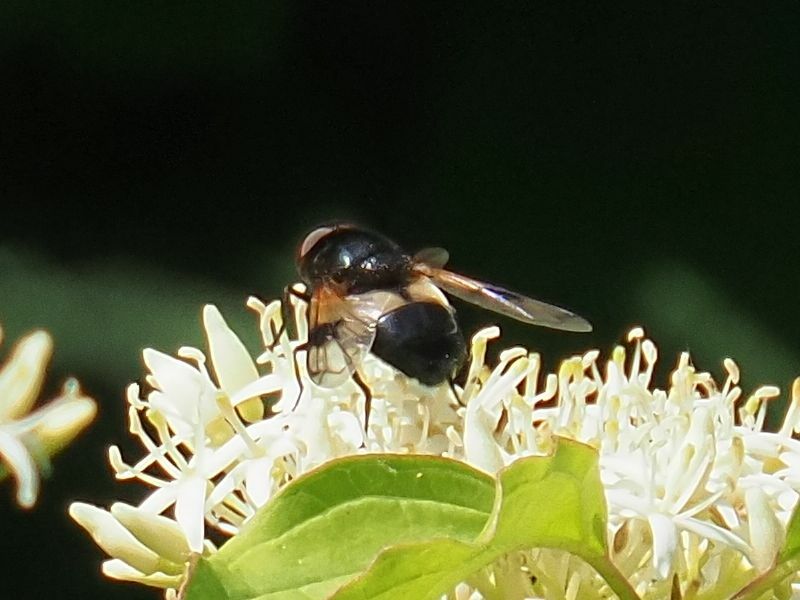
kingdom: Animalia
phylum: Arthropoda
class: Insecta
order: Diptera
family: Syrphidae
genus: Volucella
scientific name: Volucella pellucens
